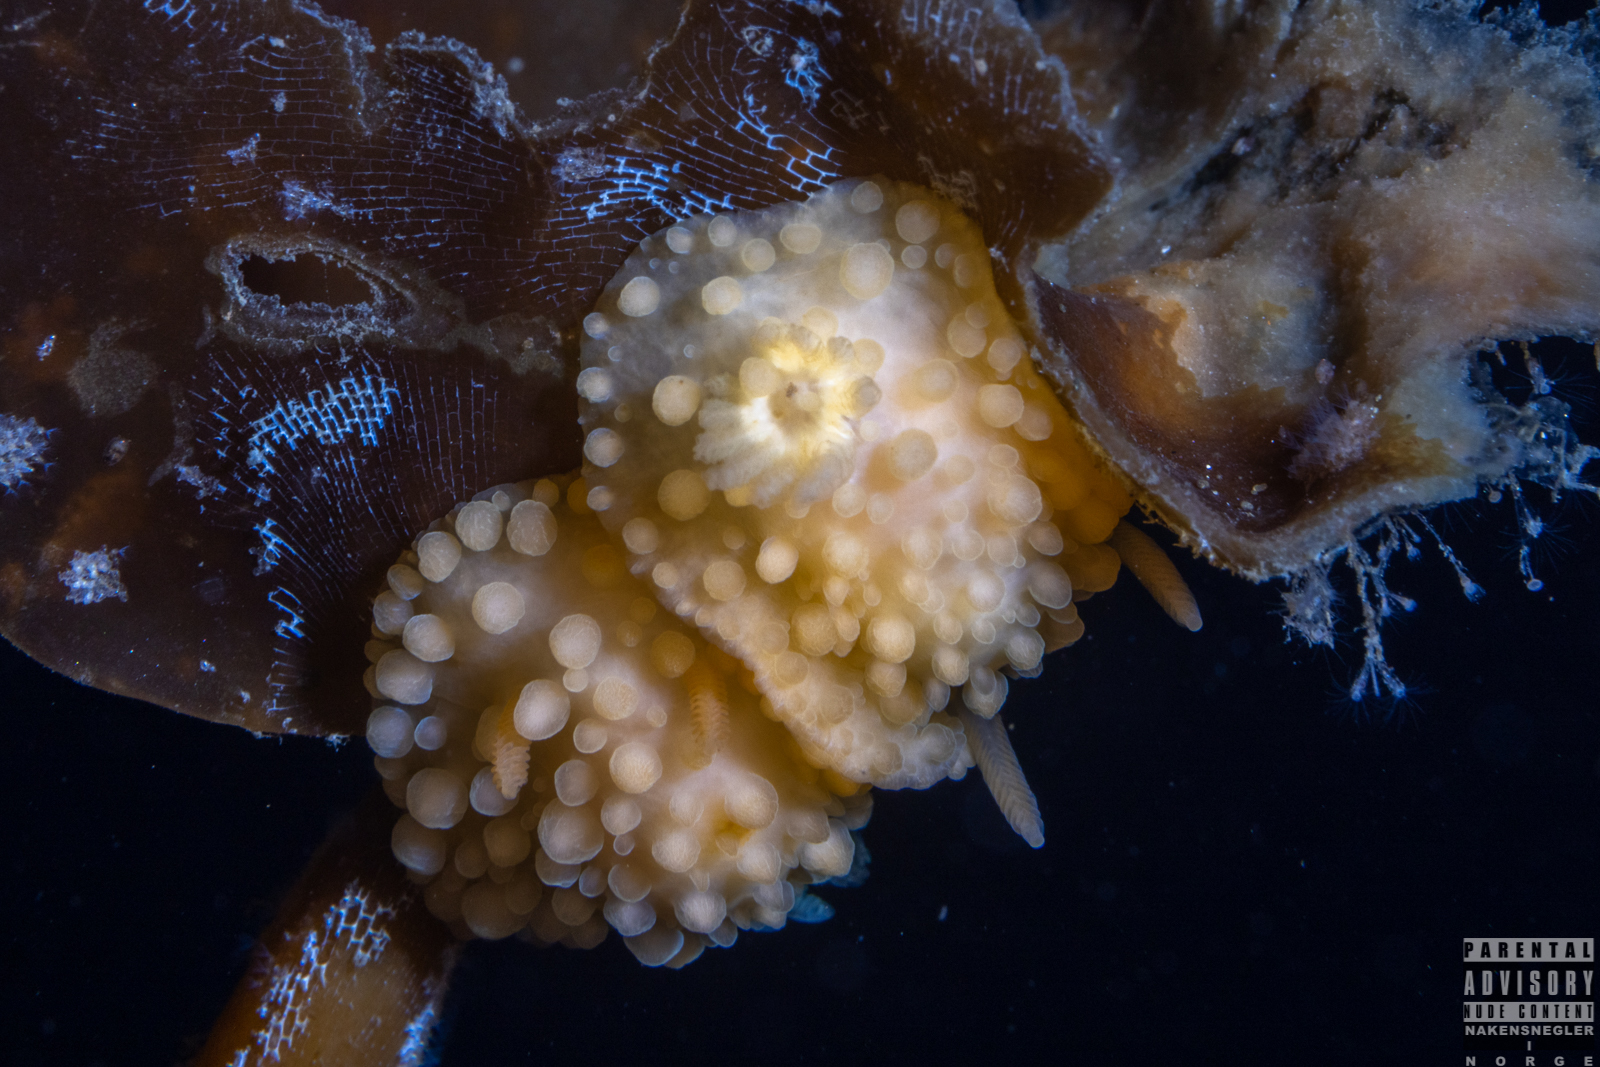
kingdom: Animalia
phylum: Mollusca
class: Gastropoda
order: Nudibranchia
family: Onchidorididae
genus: Adalaria
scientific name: Adalaria loveni
